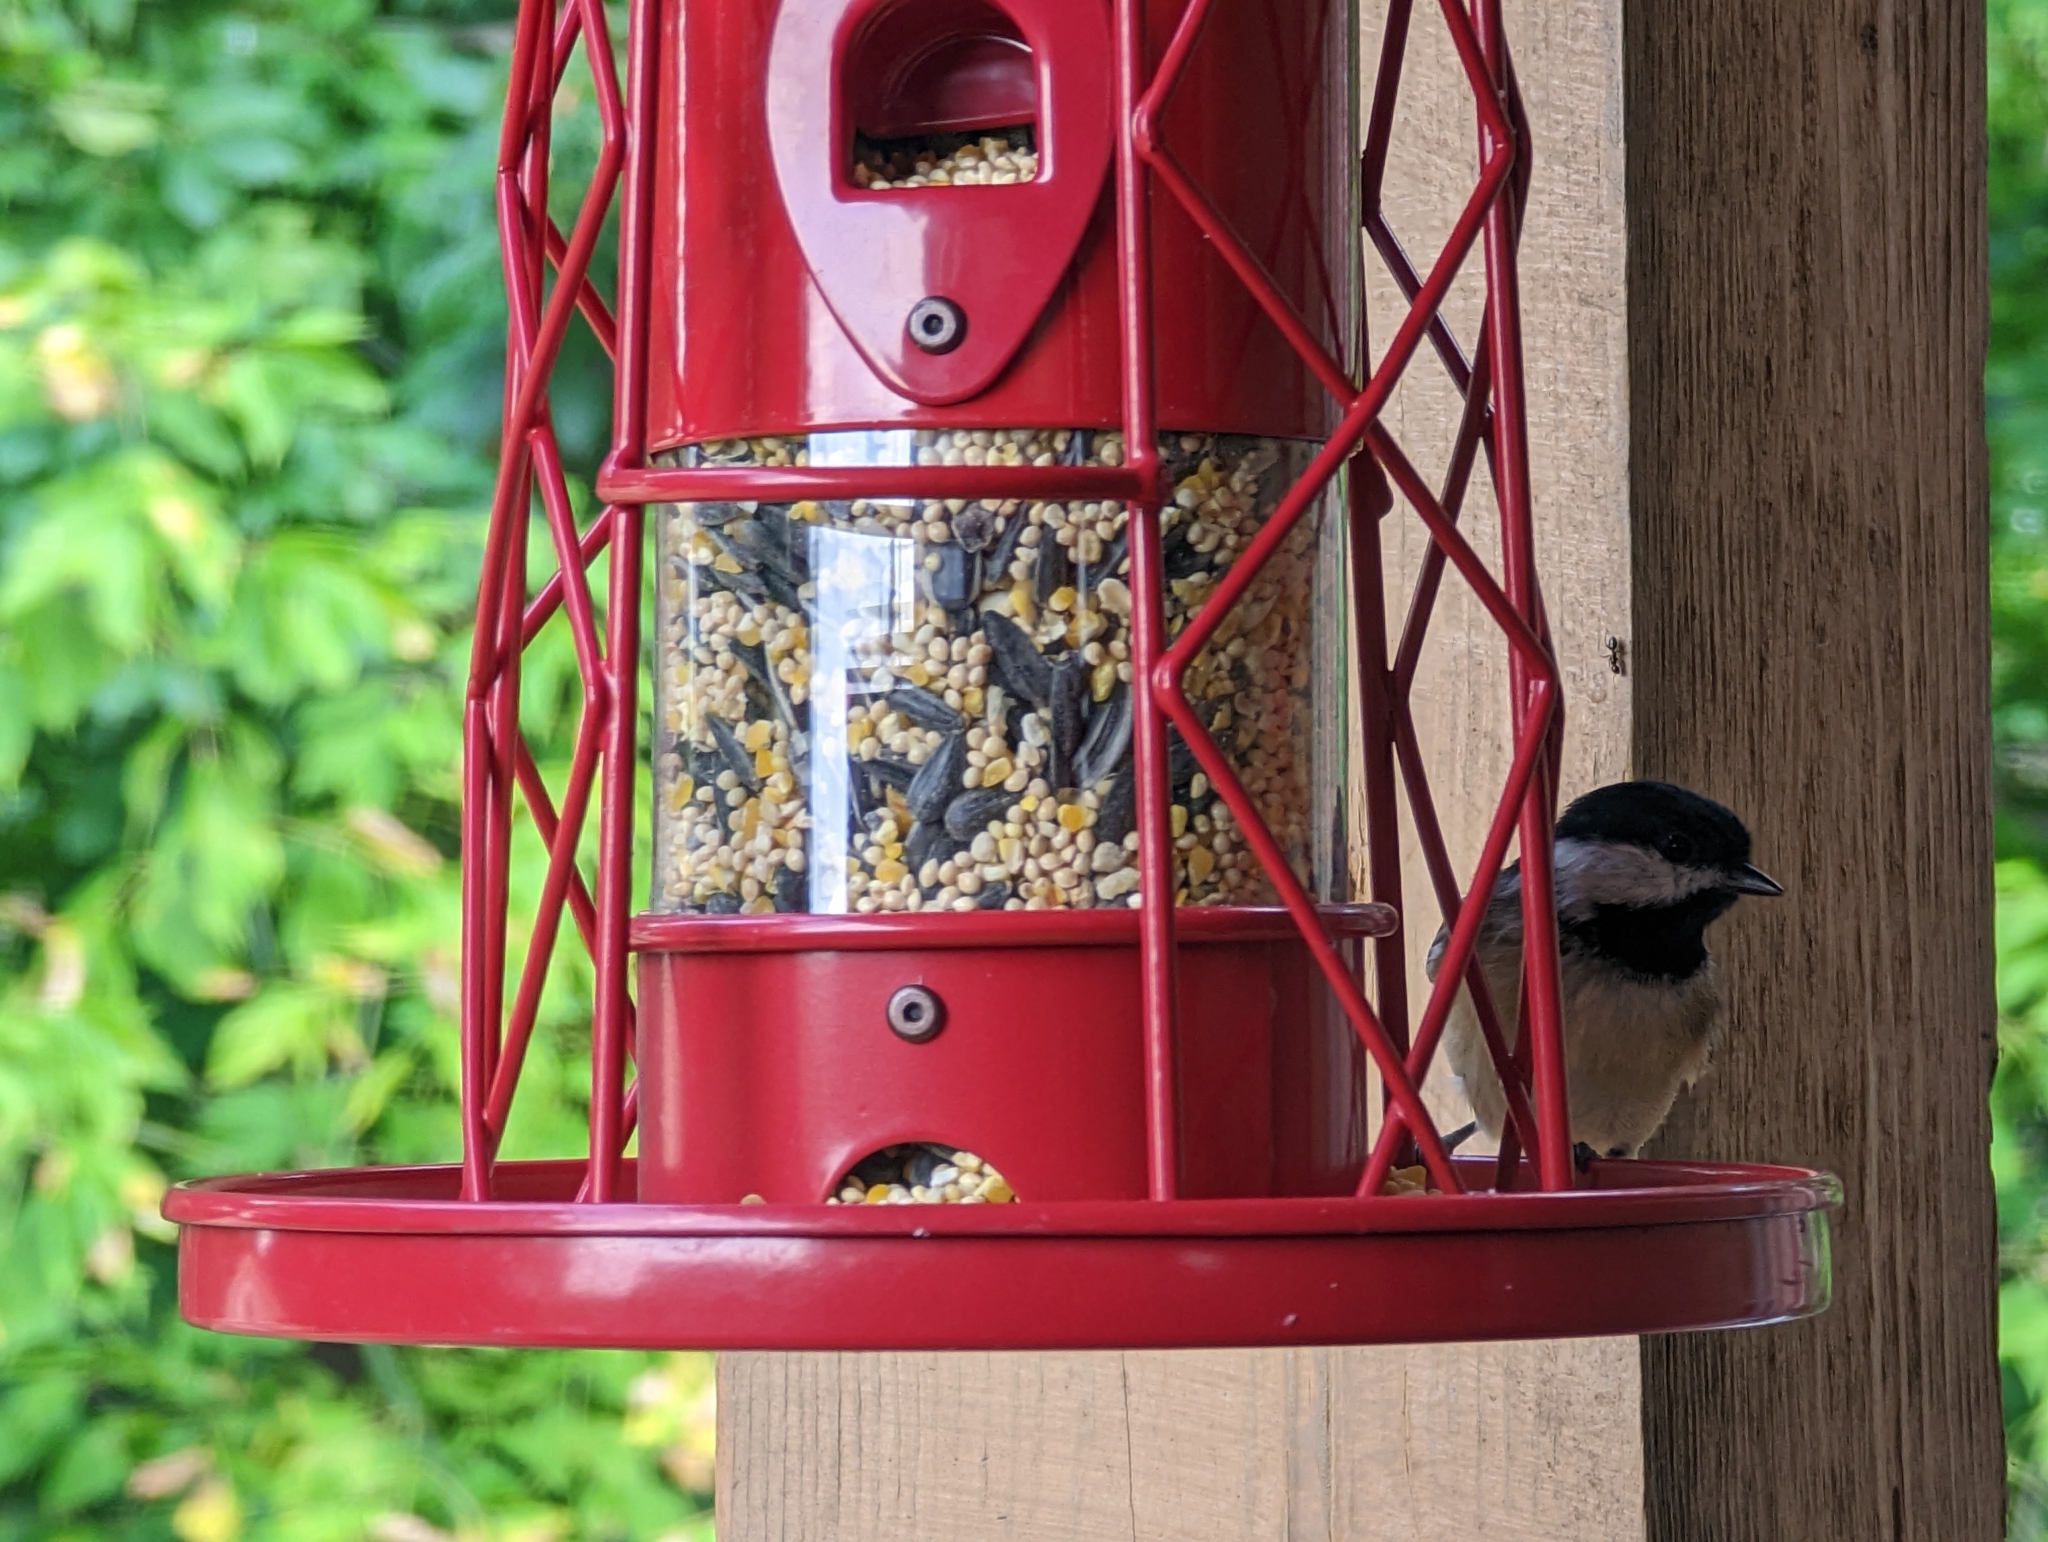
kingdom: Animalia
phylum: Chordata
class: Aves
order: Passeriformes
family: Paridae
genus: Poecile
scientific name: Poecile carolinensis
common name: Carolina chickadee
